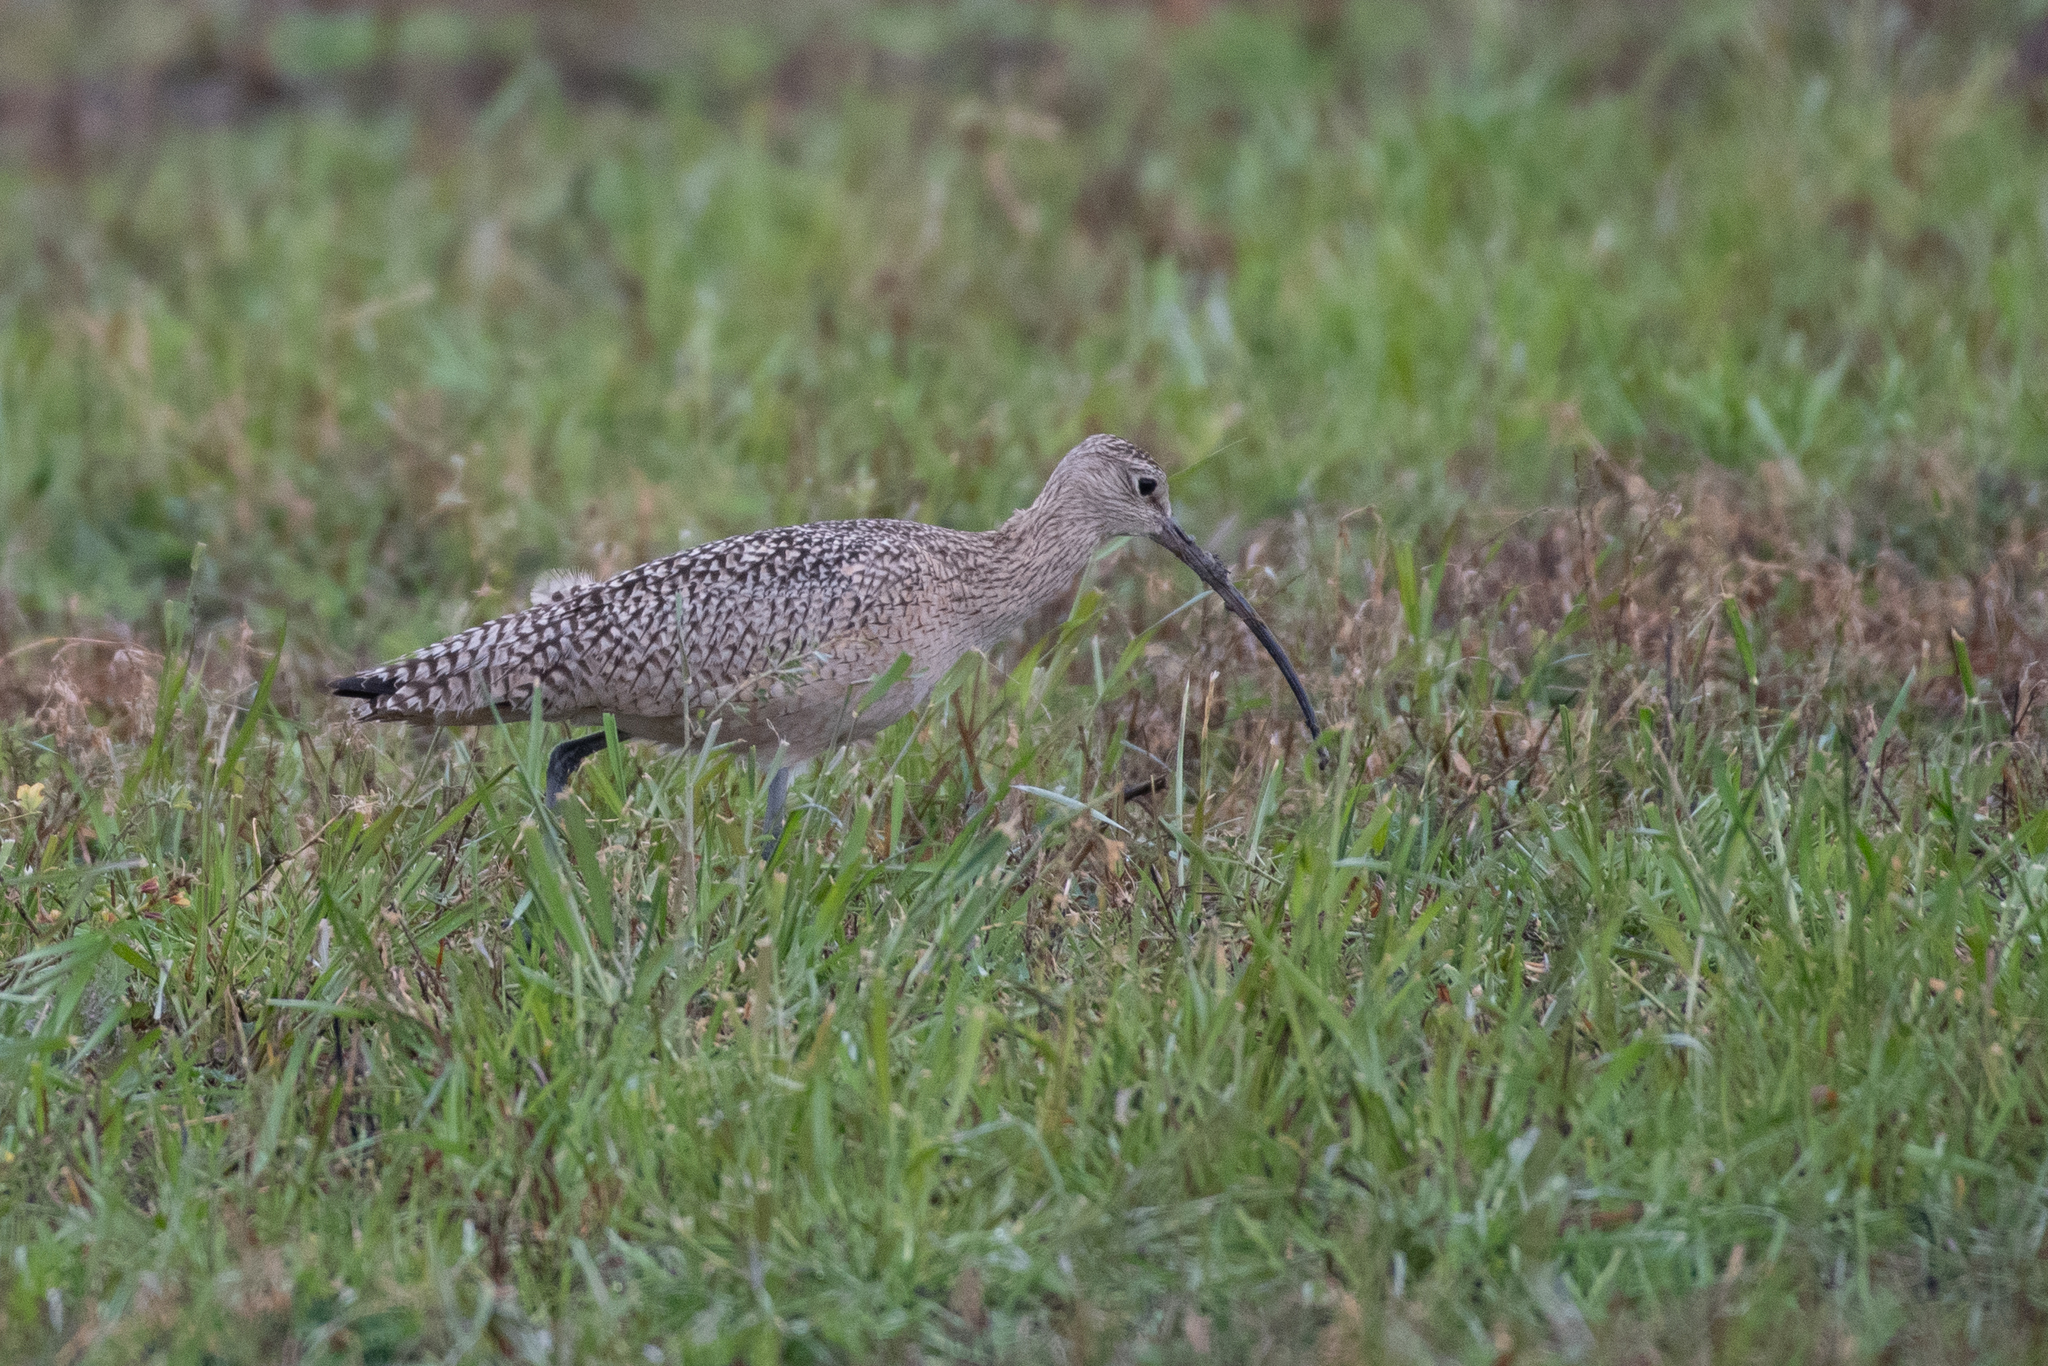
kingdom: Animalia
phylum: Chordata
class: Aves
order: Charadriiformes
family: Scolopacidae
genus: Numenius
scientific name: Numenius americanus
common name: Long-billed curlew
